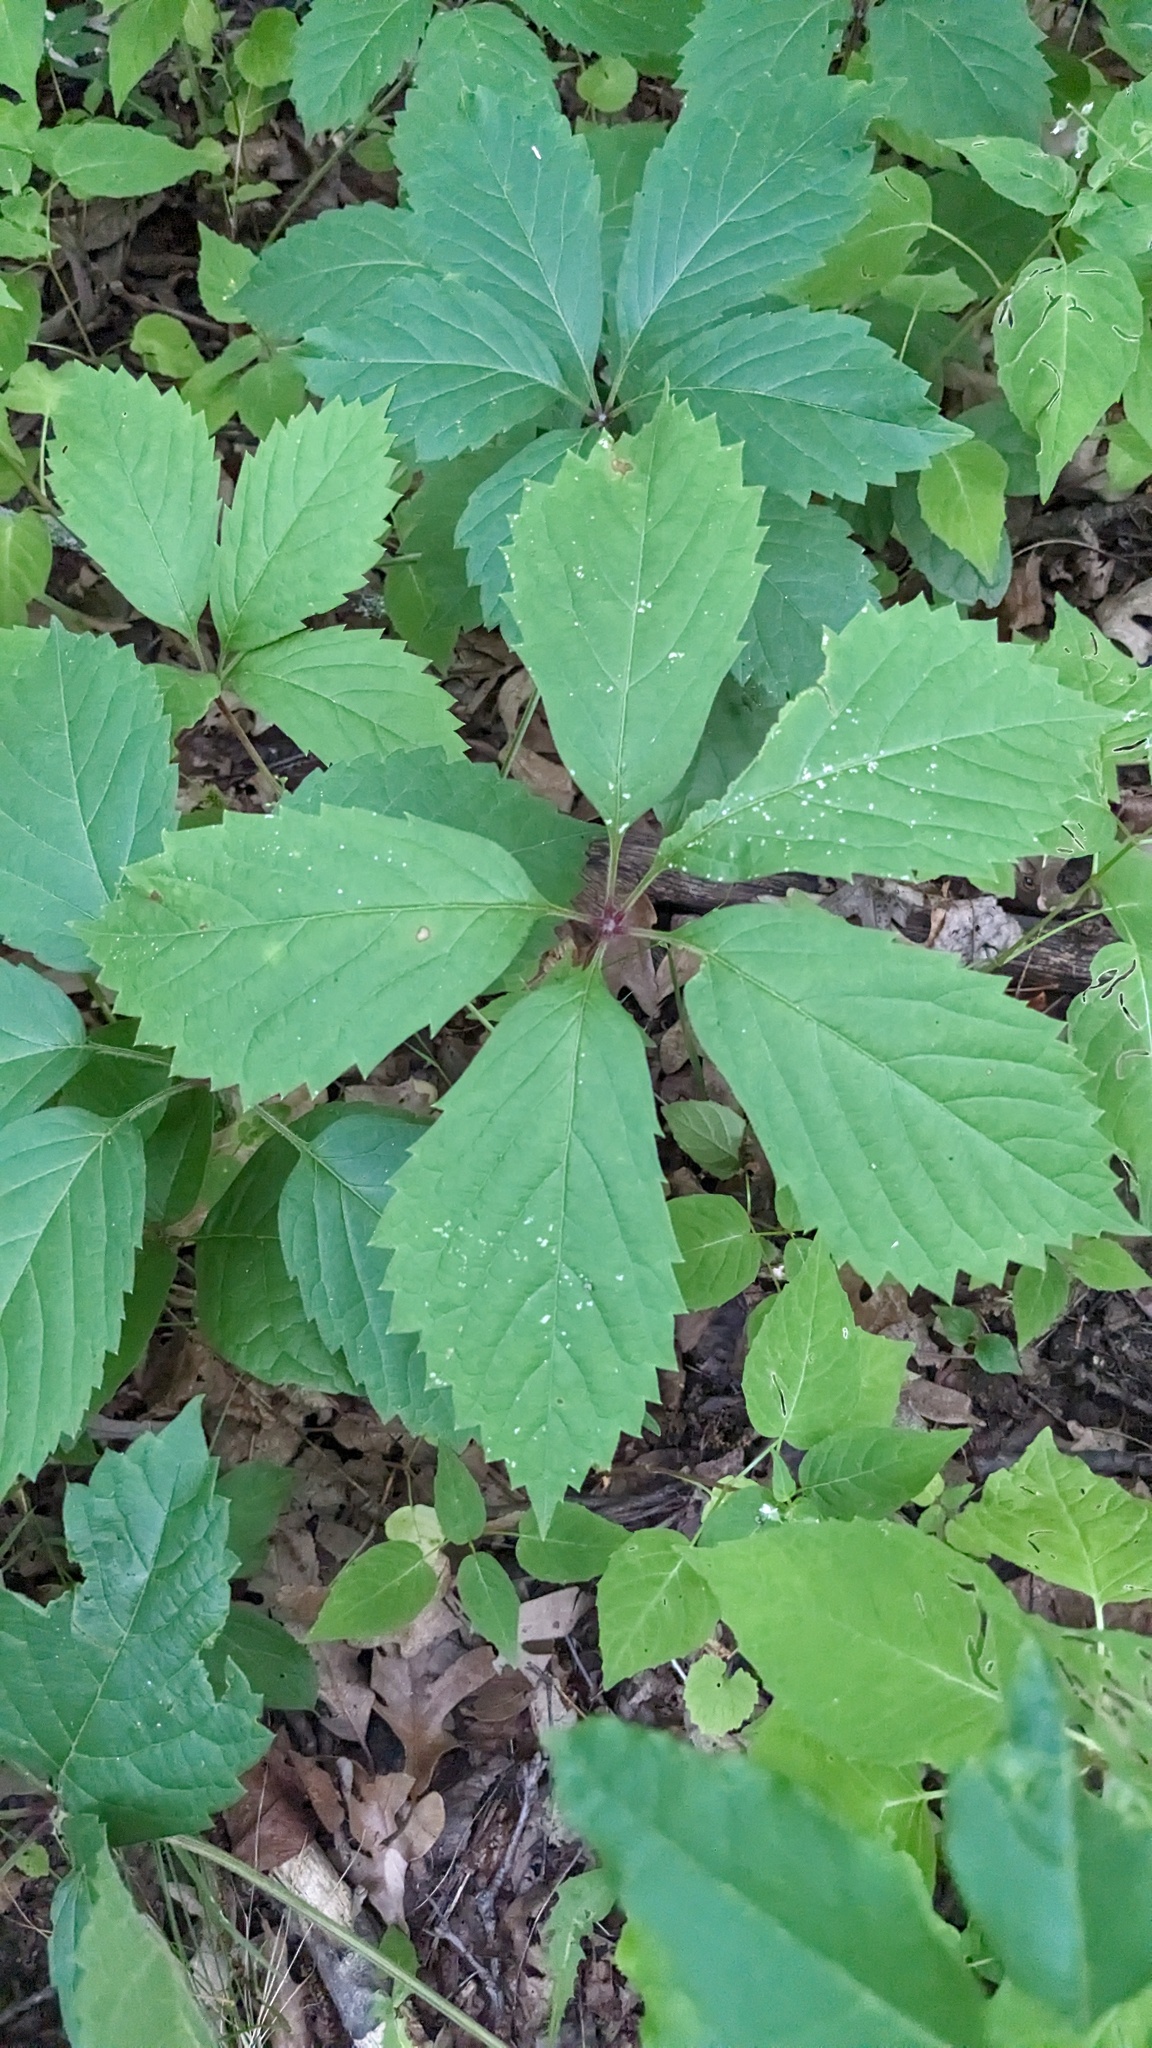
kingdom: Plantae
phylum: Tracheophyta
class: Magnoliopsida
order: Vitales
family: Vitaceae
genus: Parthenocissus
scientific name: Parthenocissus inserta
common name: False virginia-creeper
